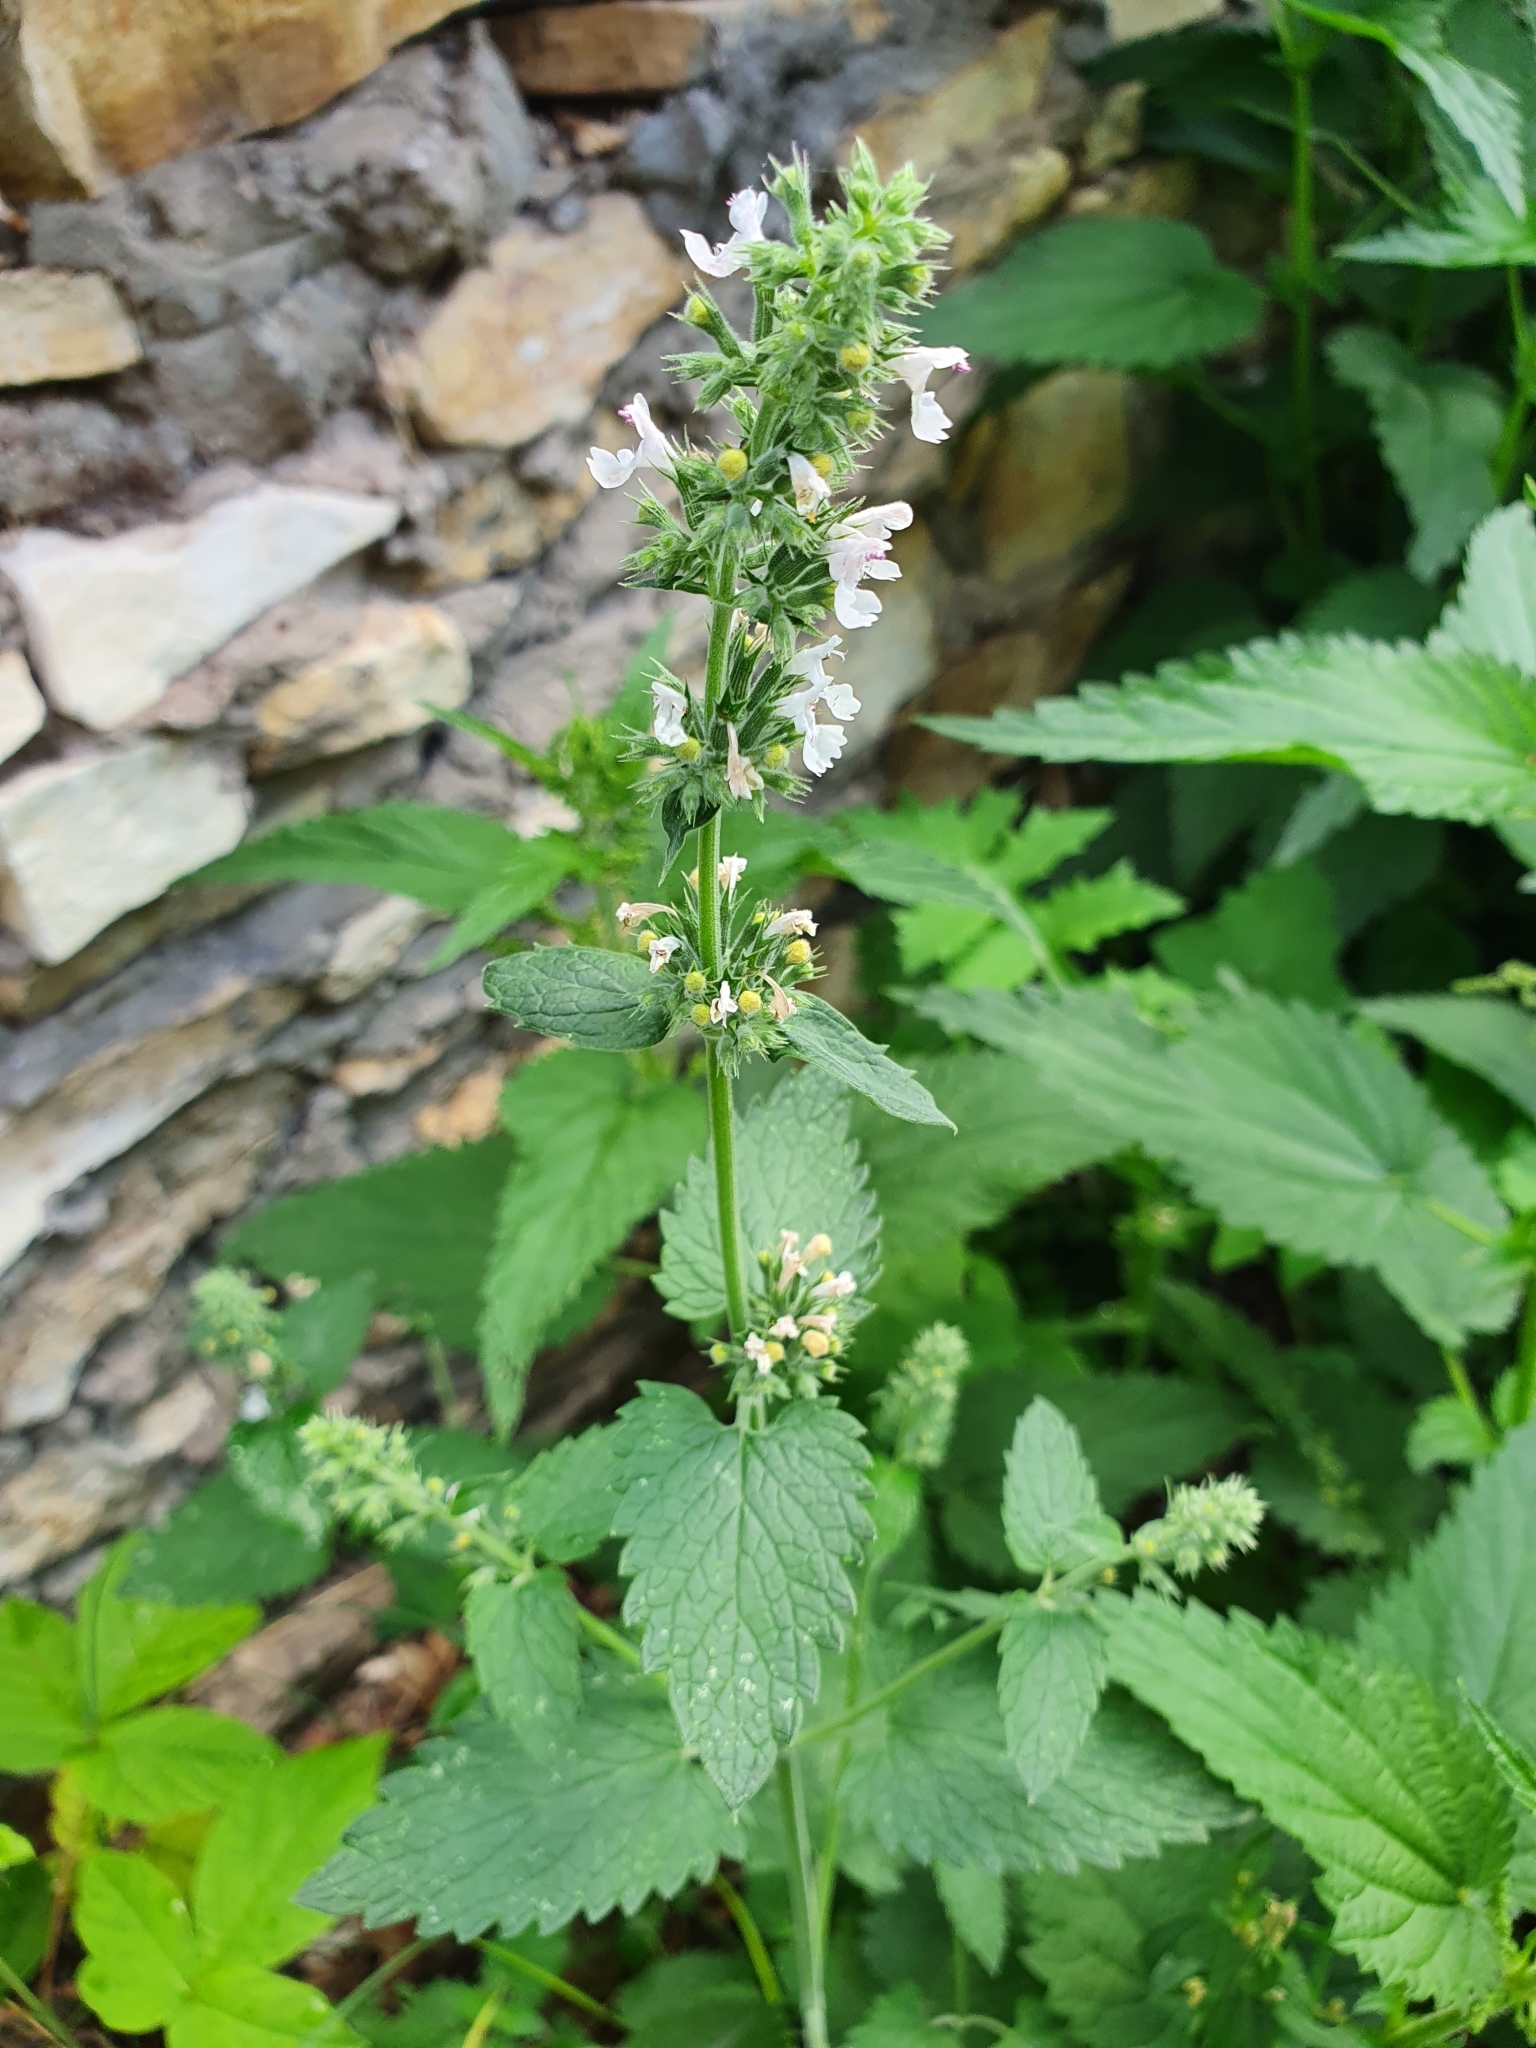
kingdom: Plantae
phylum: Tracheophyta
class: Magnoliopsida
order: Lamiales
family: Lamiaceae
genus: Nepeta
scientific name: Nepeta cataria
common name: Catnip
